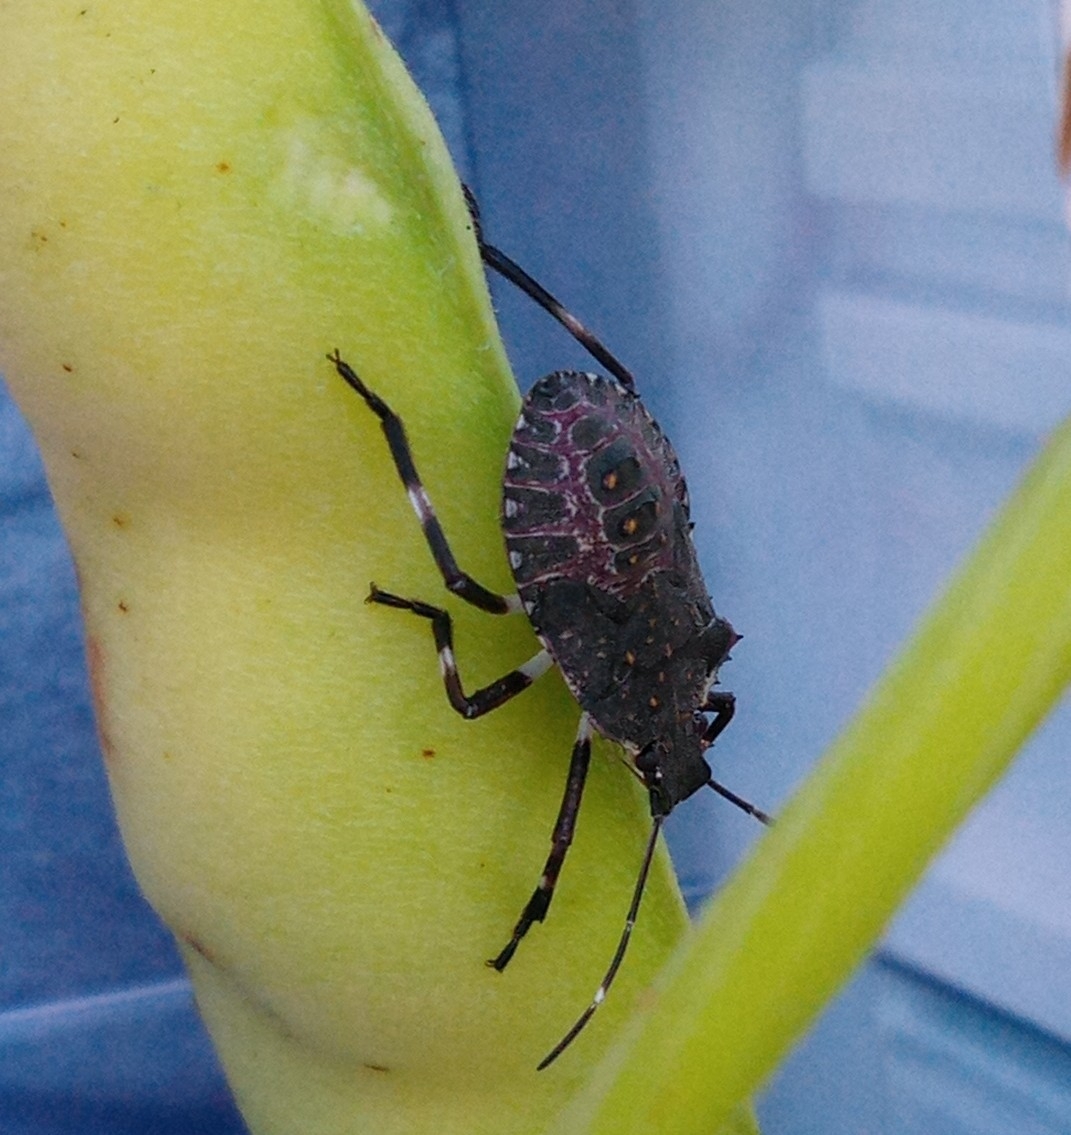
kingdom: Animalia
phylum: Arthropoda
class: Insecta
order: Hemiptera
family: Pentatomidae
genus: Halyomorpha
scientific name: Halyomorpha halys
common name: Brown marmorated stink bug
